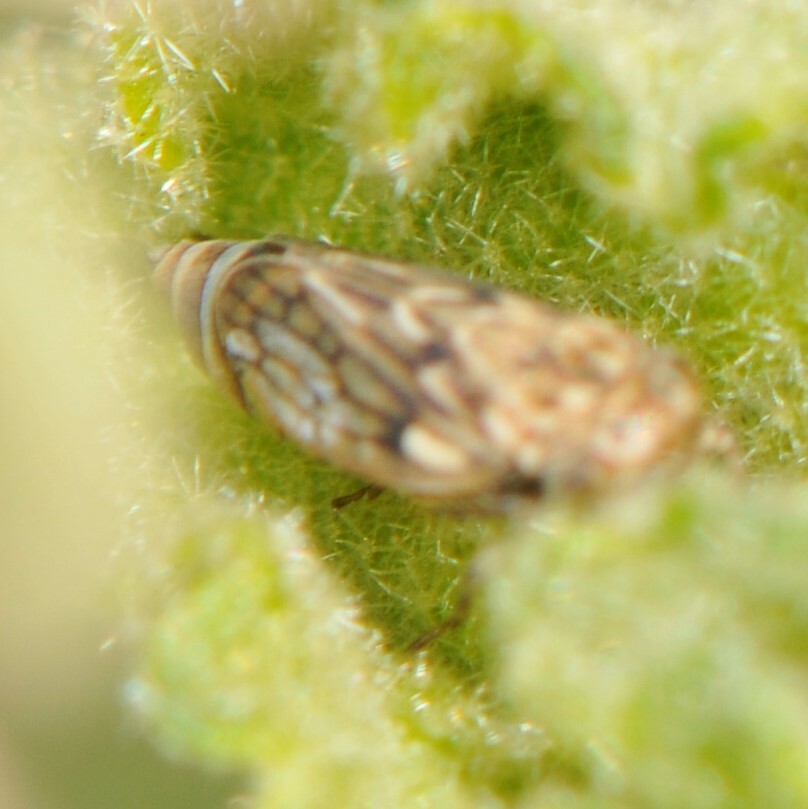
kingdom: Animalia
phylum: Arthropoda
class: Insecta
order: Hemiptera
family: Cicadellidae
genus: Ceratagallia
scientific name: Ceratagallia
